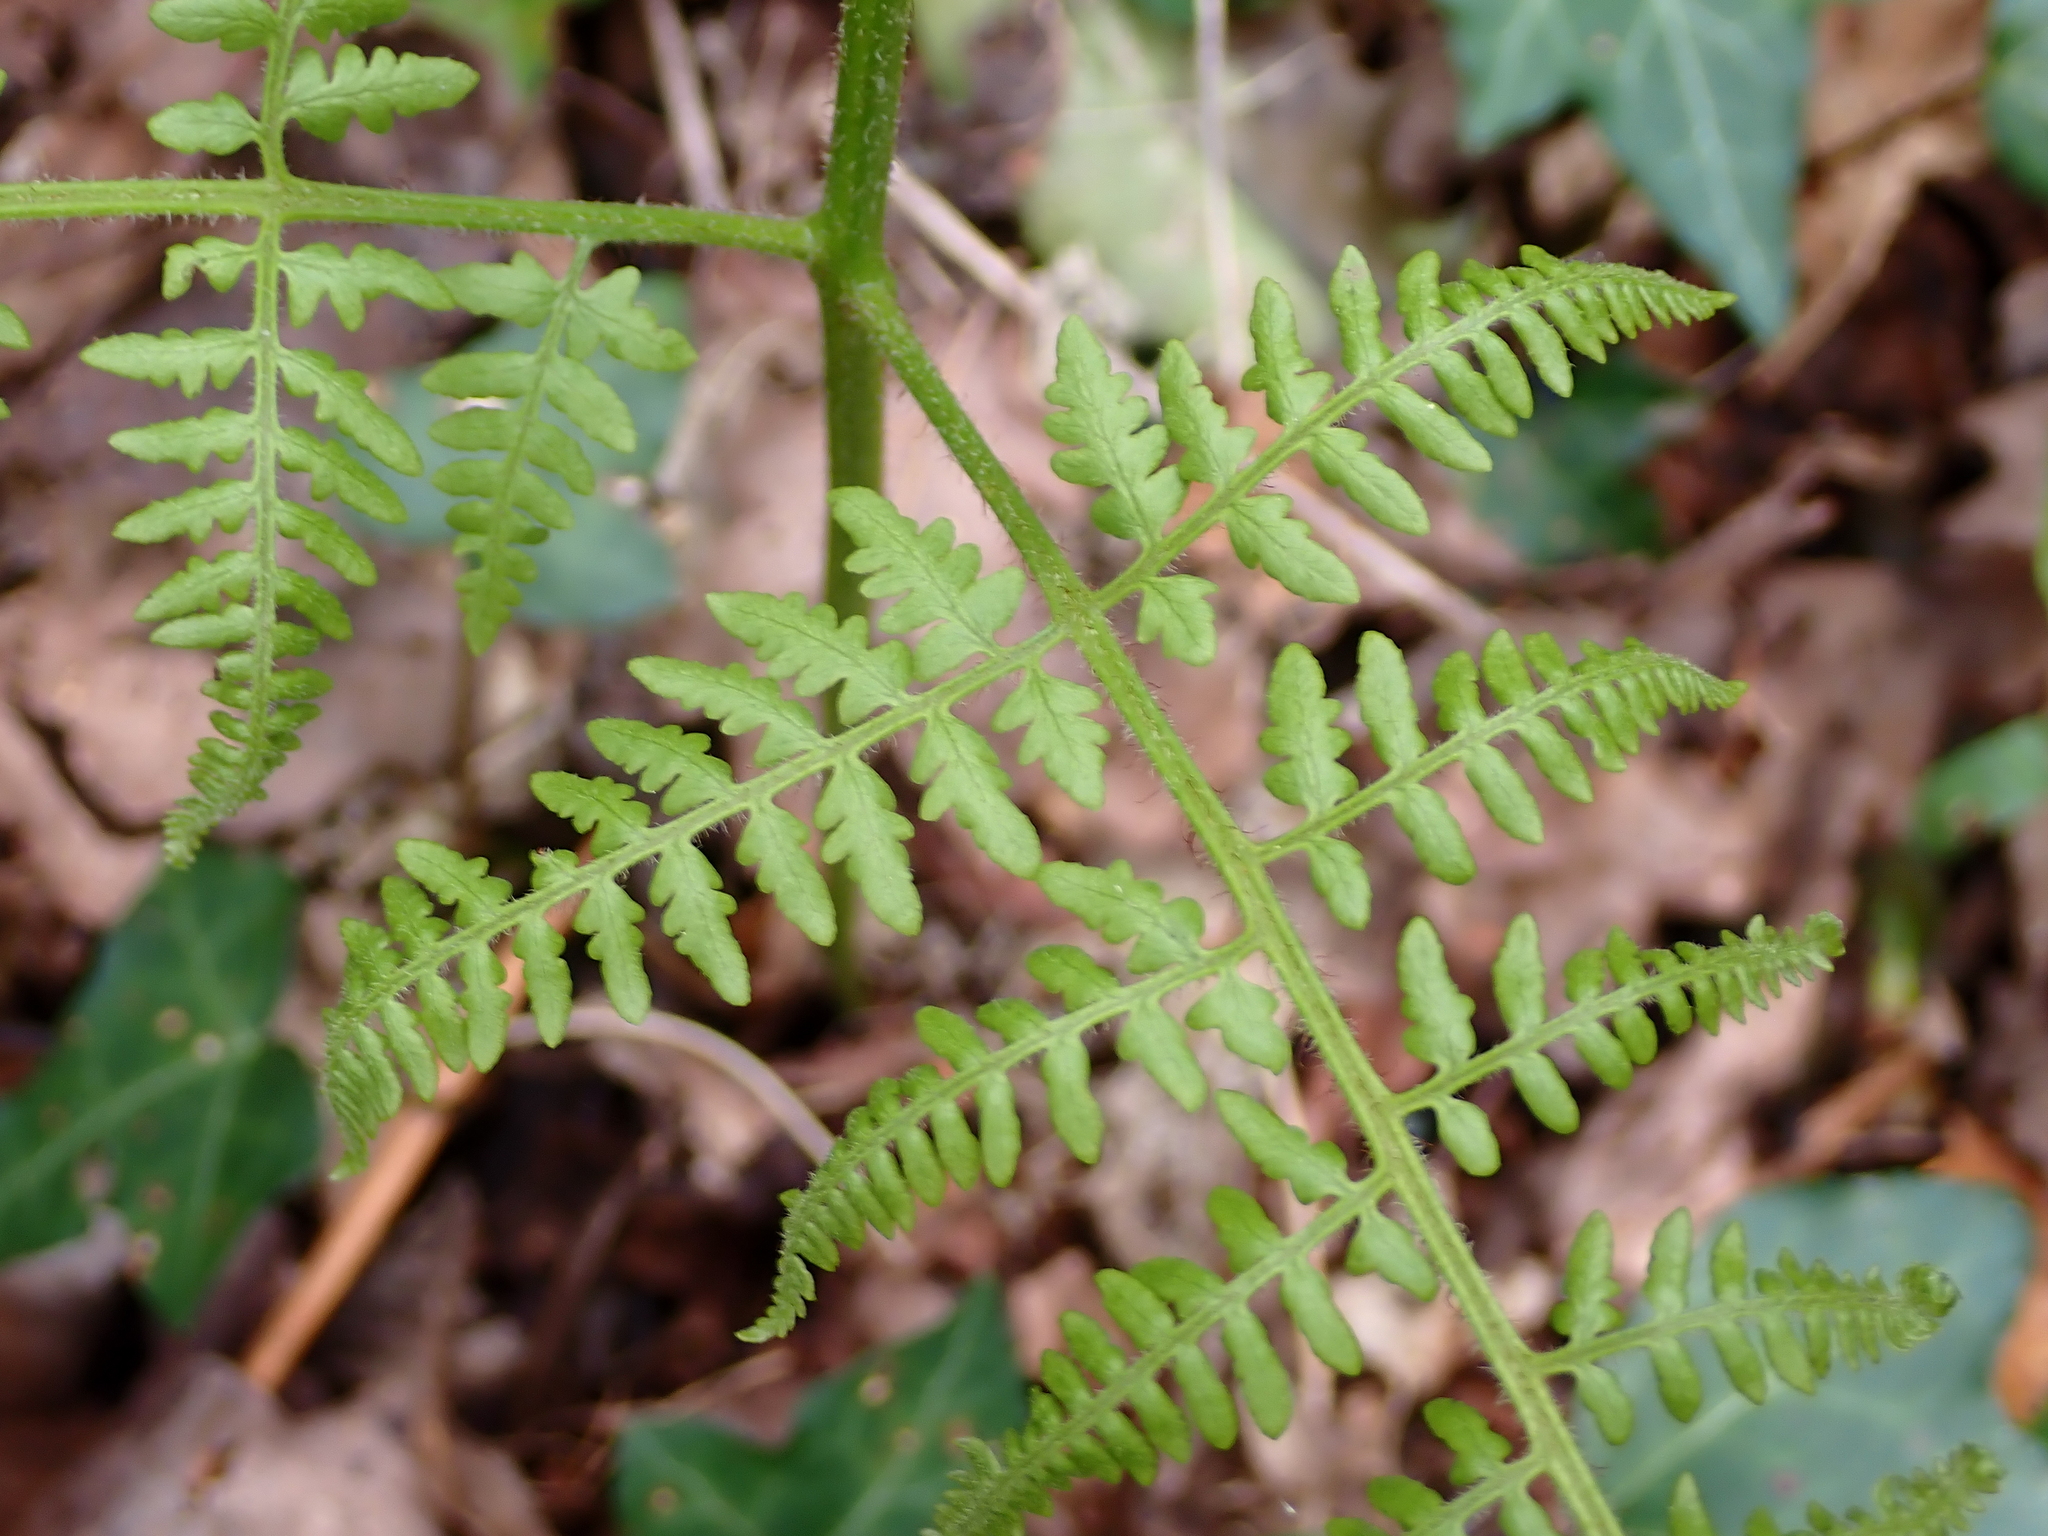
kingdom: Plantae
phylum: Tracheophyta
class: Polypodiopsida
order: Polypodiales
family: Dennstaedtiaceae
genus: Pteridium
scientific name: Pteridium aquilinum
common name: Bracken
